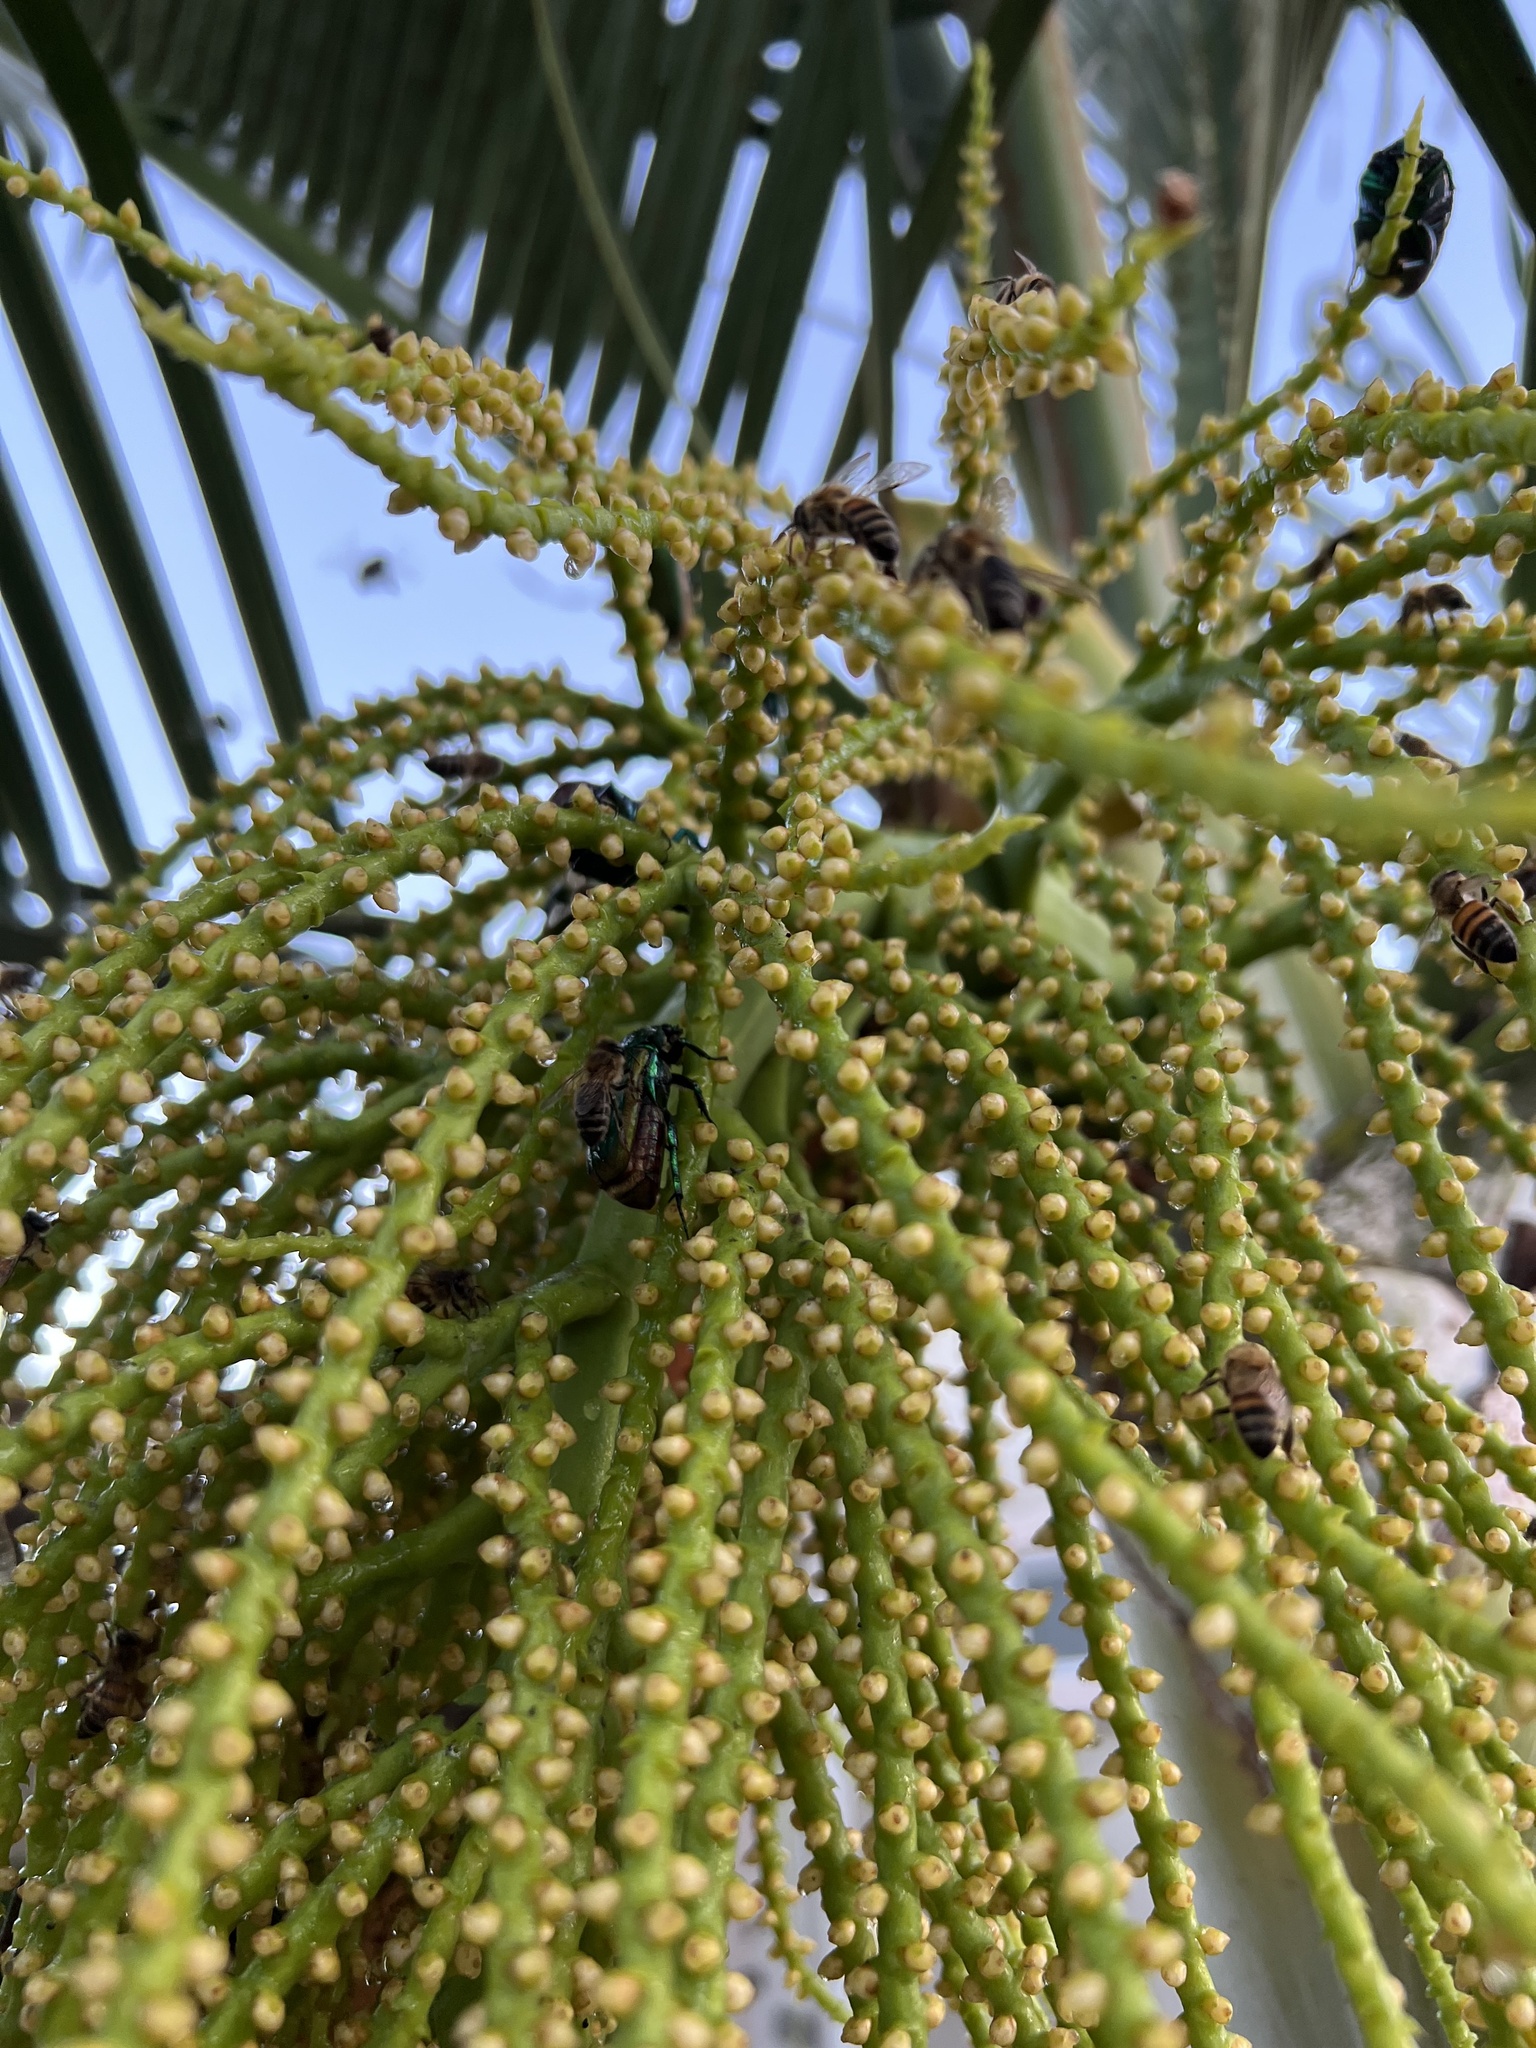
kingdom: Animalia
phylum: Arthropoda
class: Insecta
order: Coleoptera
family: Scarabaeidae
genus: Cotinis
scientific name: Cotinis mutabilis
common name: Figeater beetle
